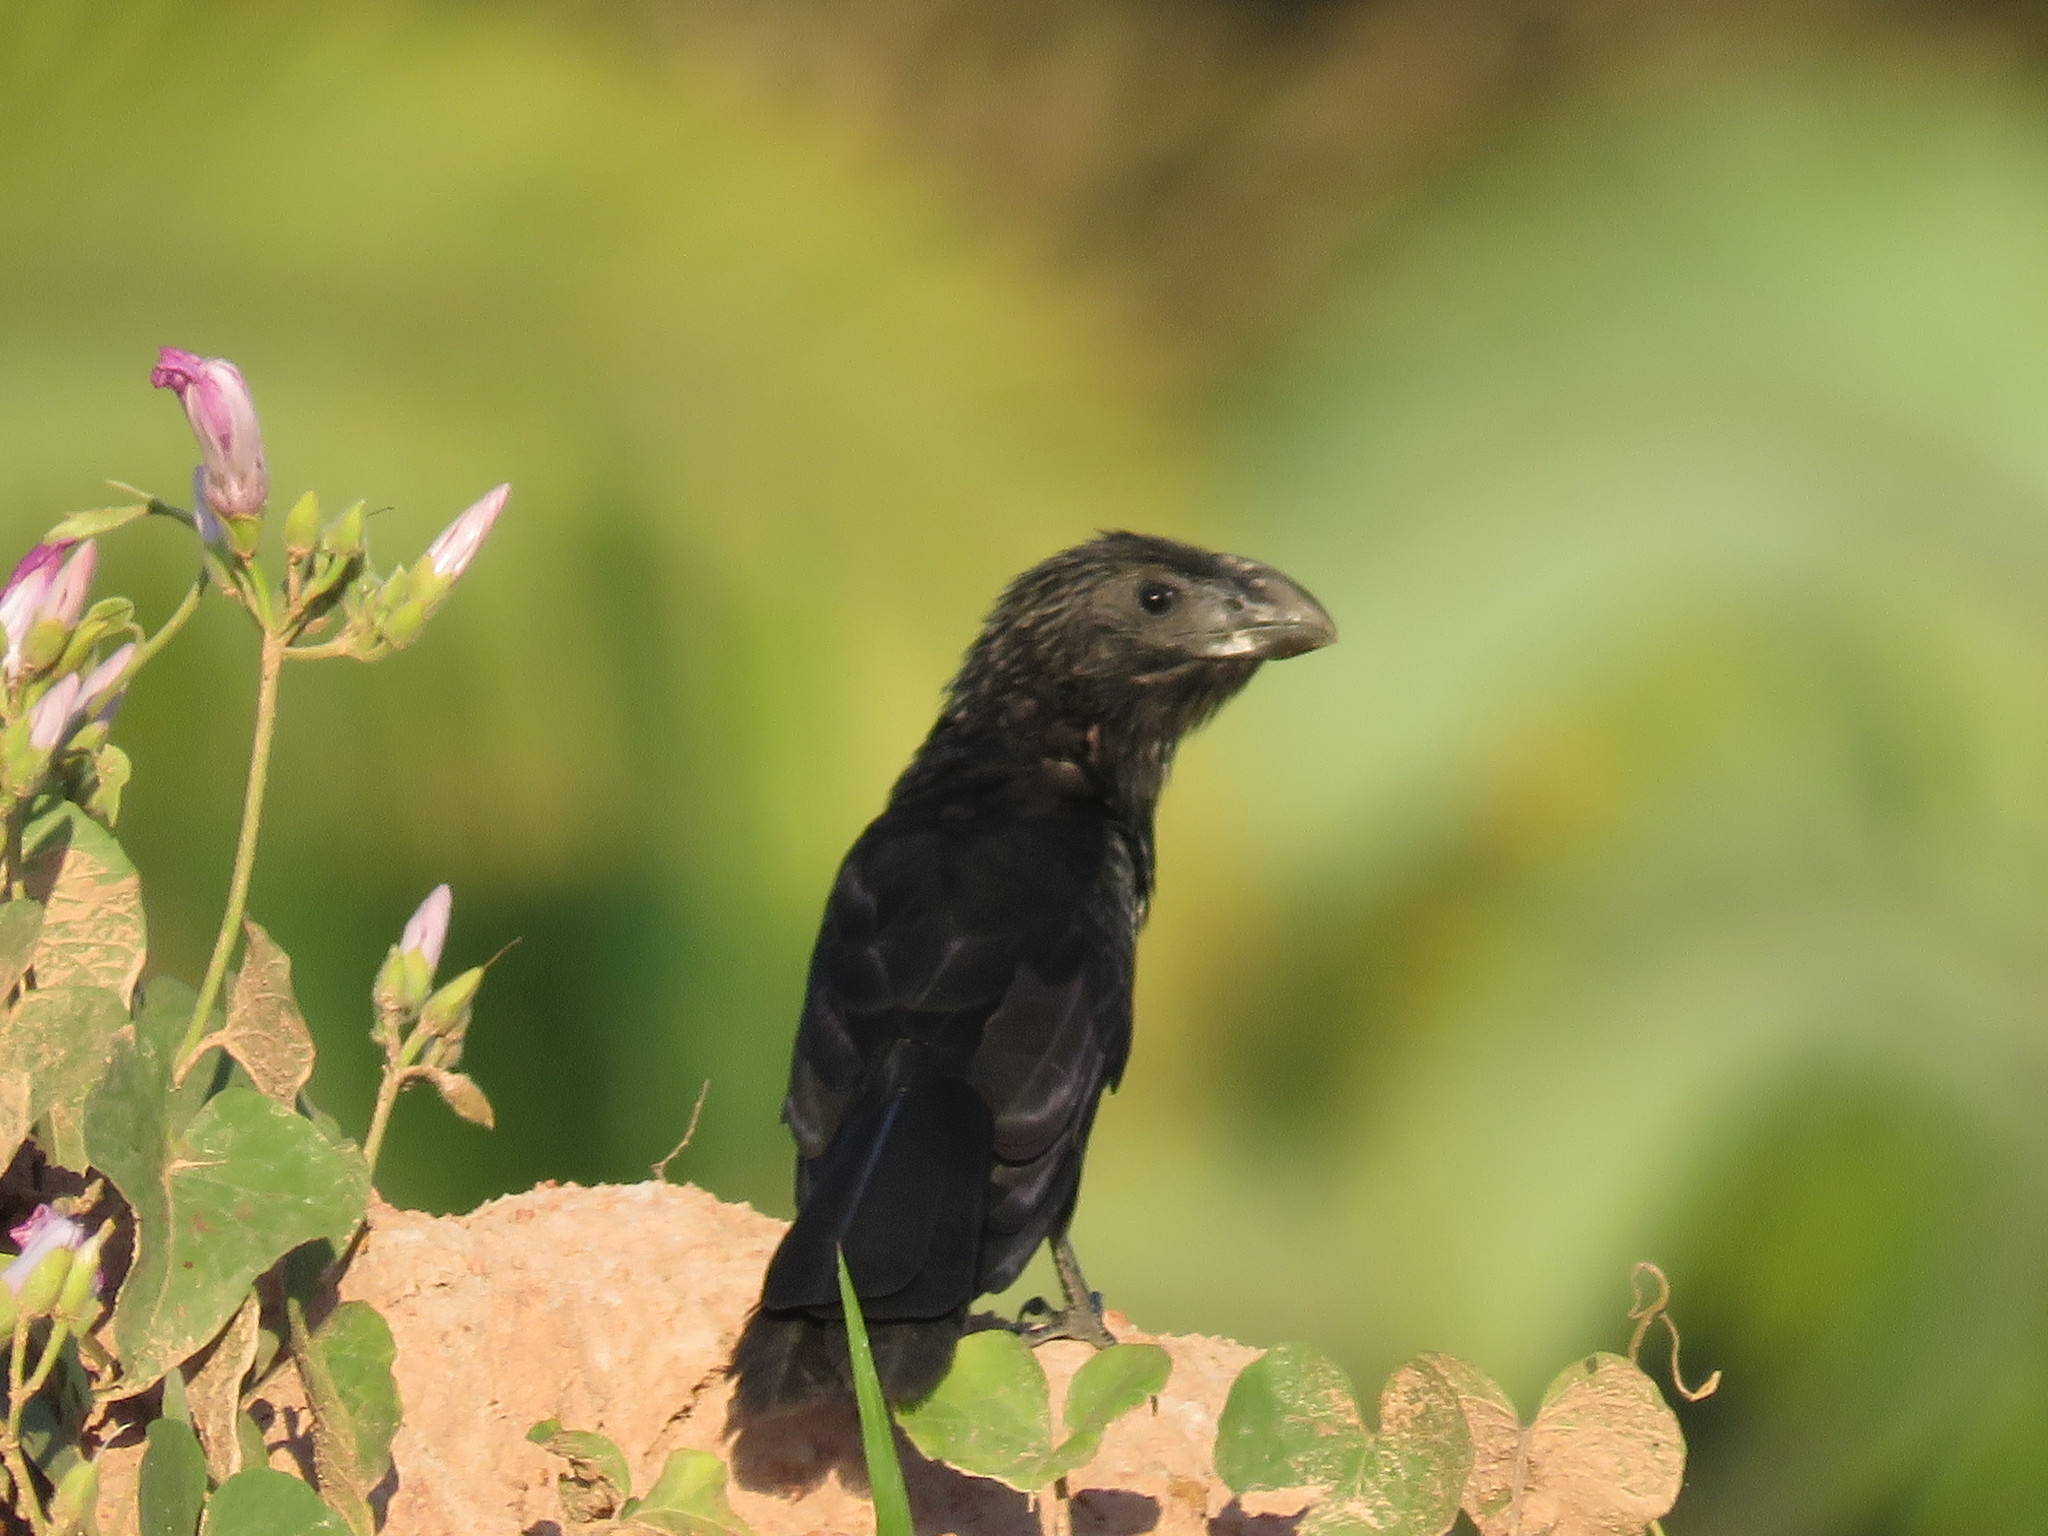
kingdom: Animalia
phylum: Chordata
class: Aves
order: Cuculiformes
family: Cuculidae
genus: Crotophaga
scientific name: Crotophaga ani
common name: Smooth-billed ani
